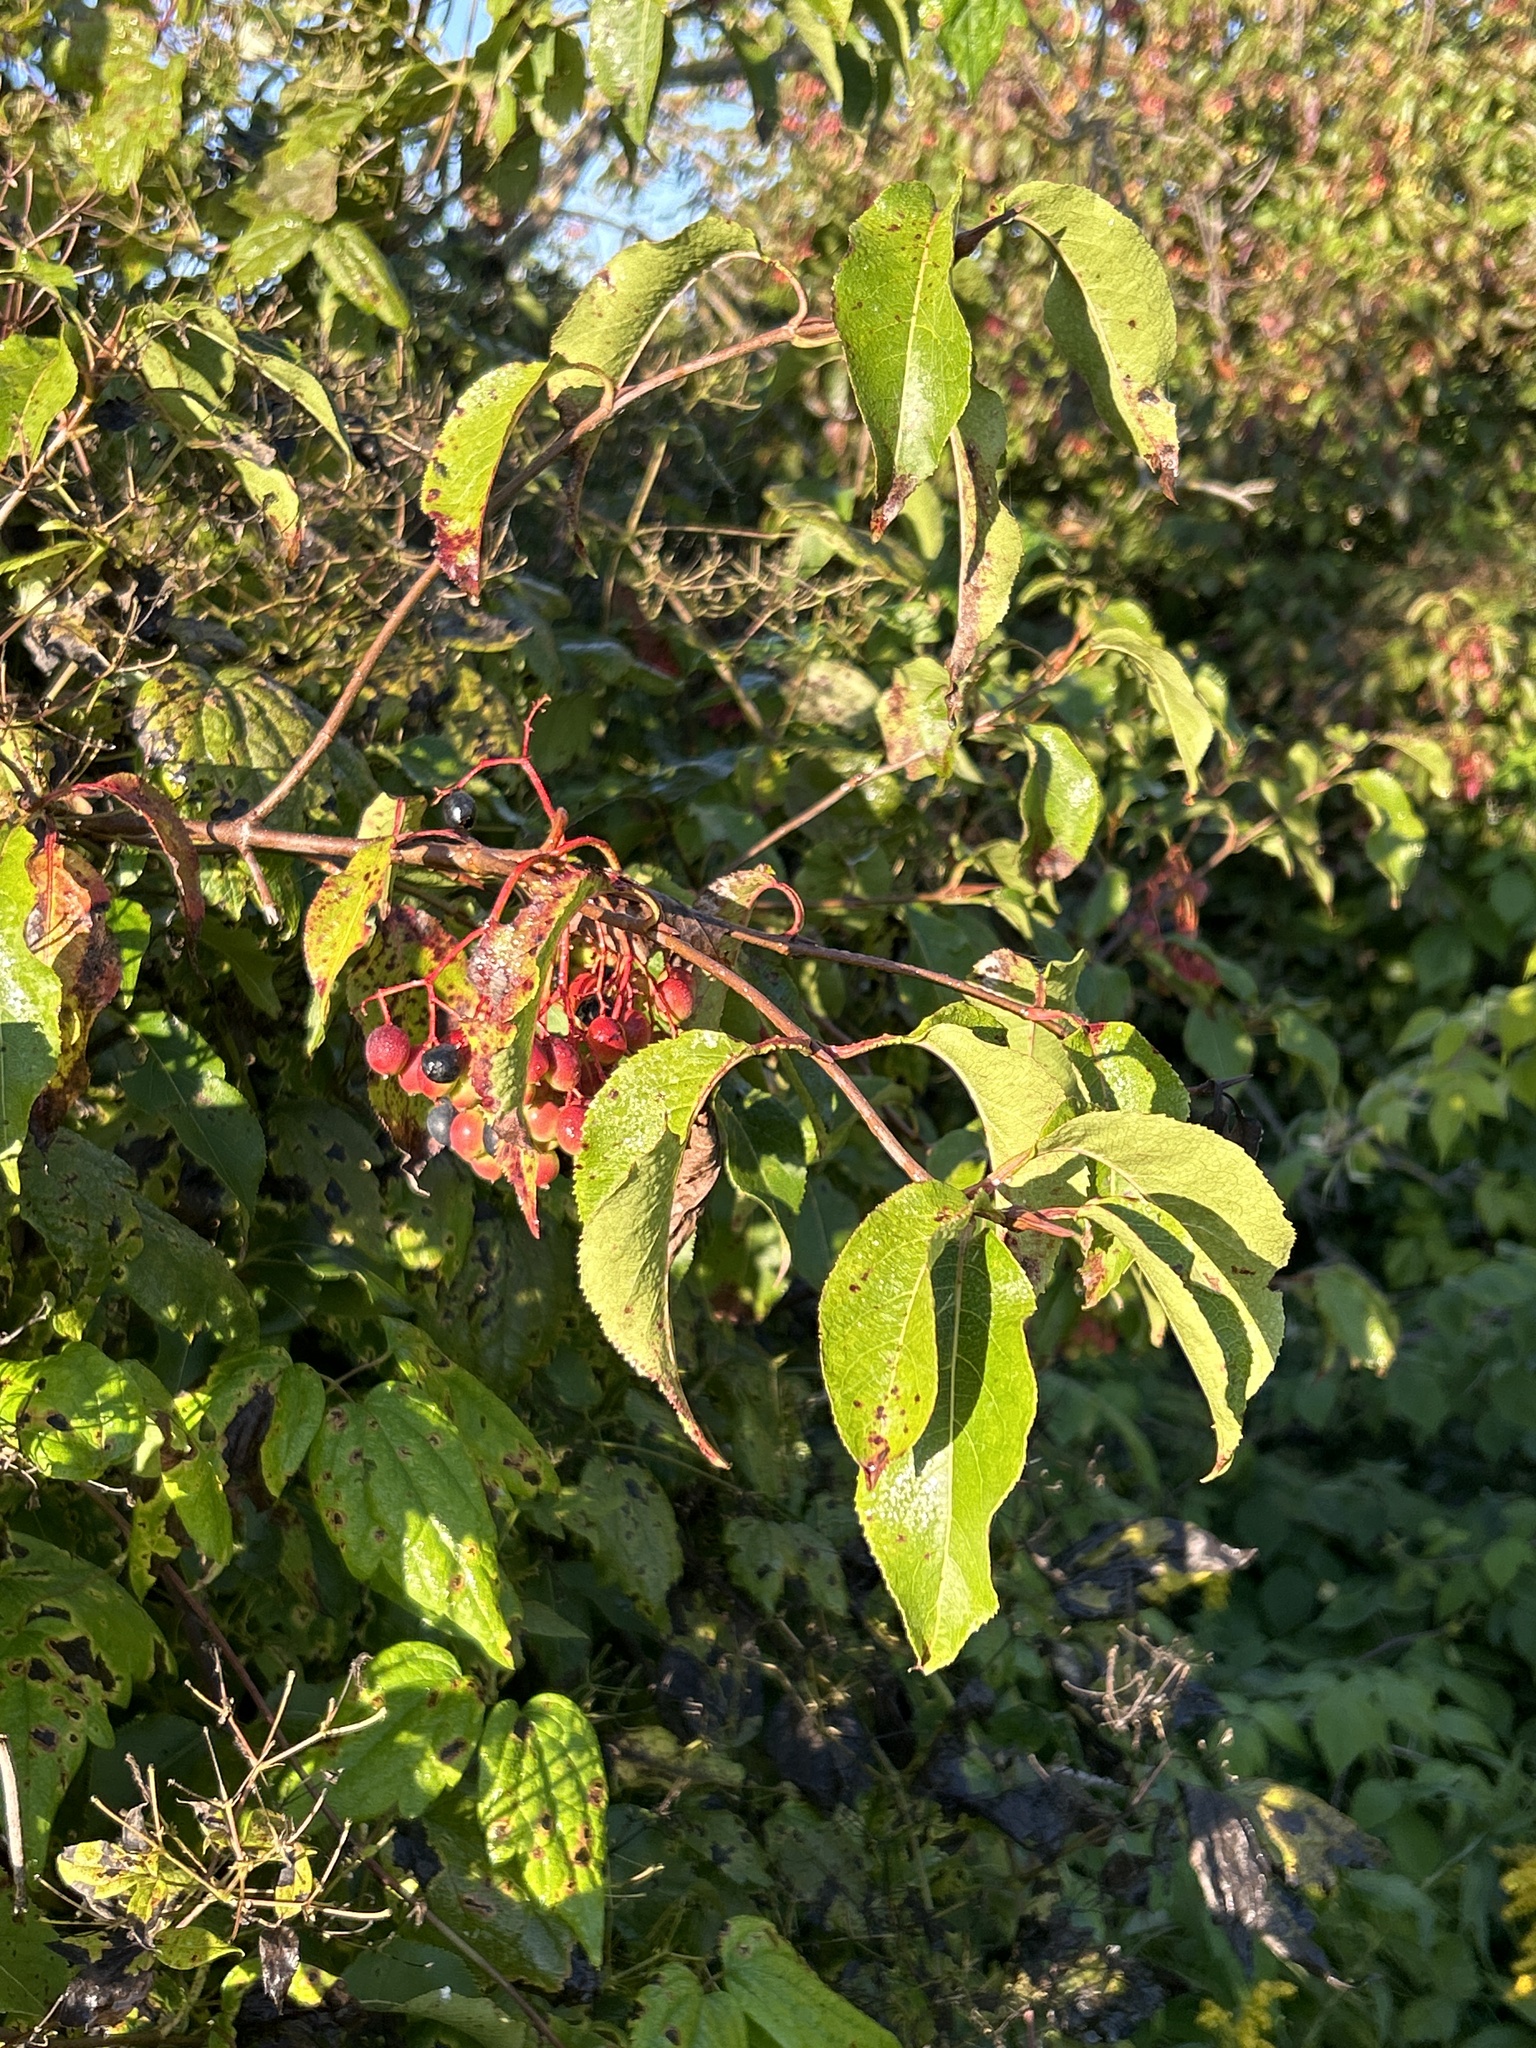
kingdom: Plantae
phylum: Tracheophyta
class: Magnoliopsida
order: Dipsacales
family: Viburnaceae
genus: Viburnum
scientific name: Viburnum lentago
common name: Black haw
